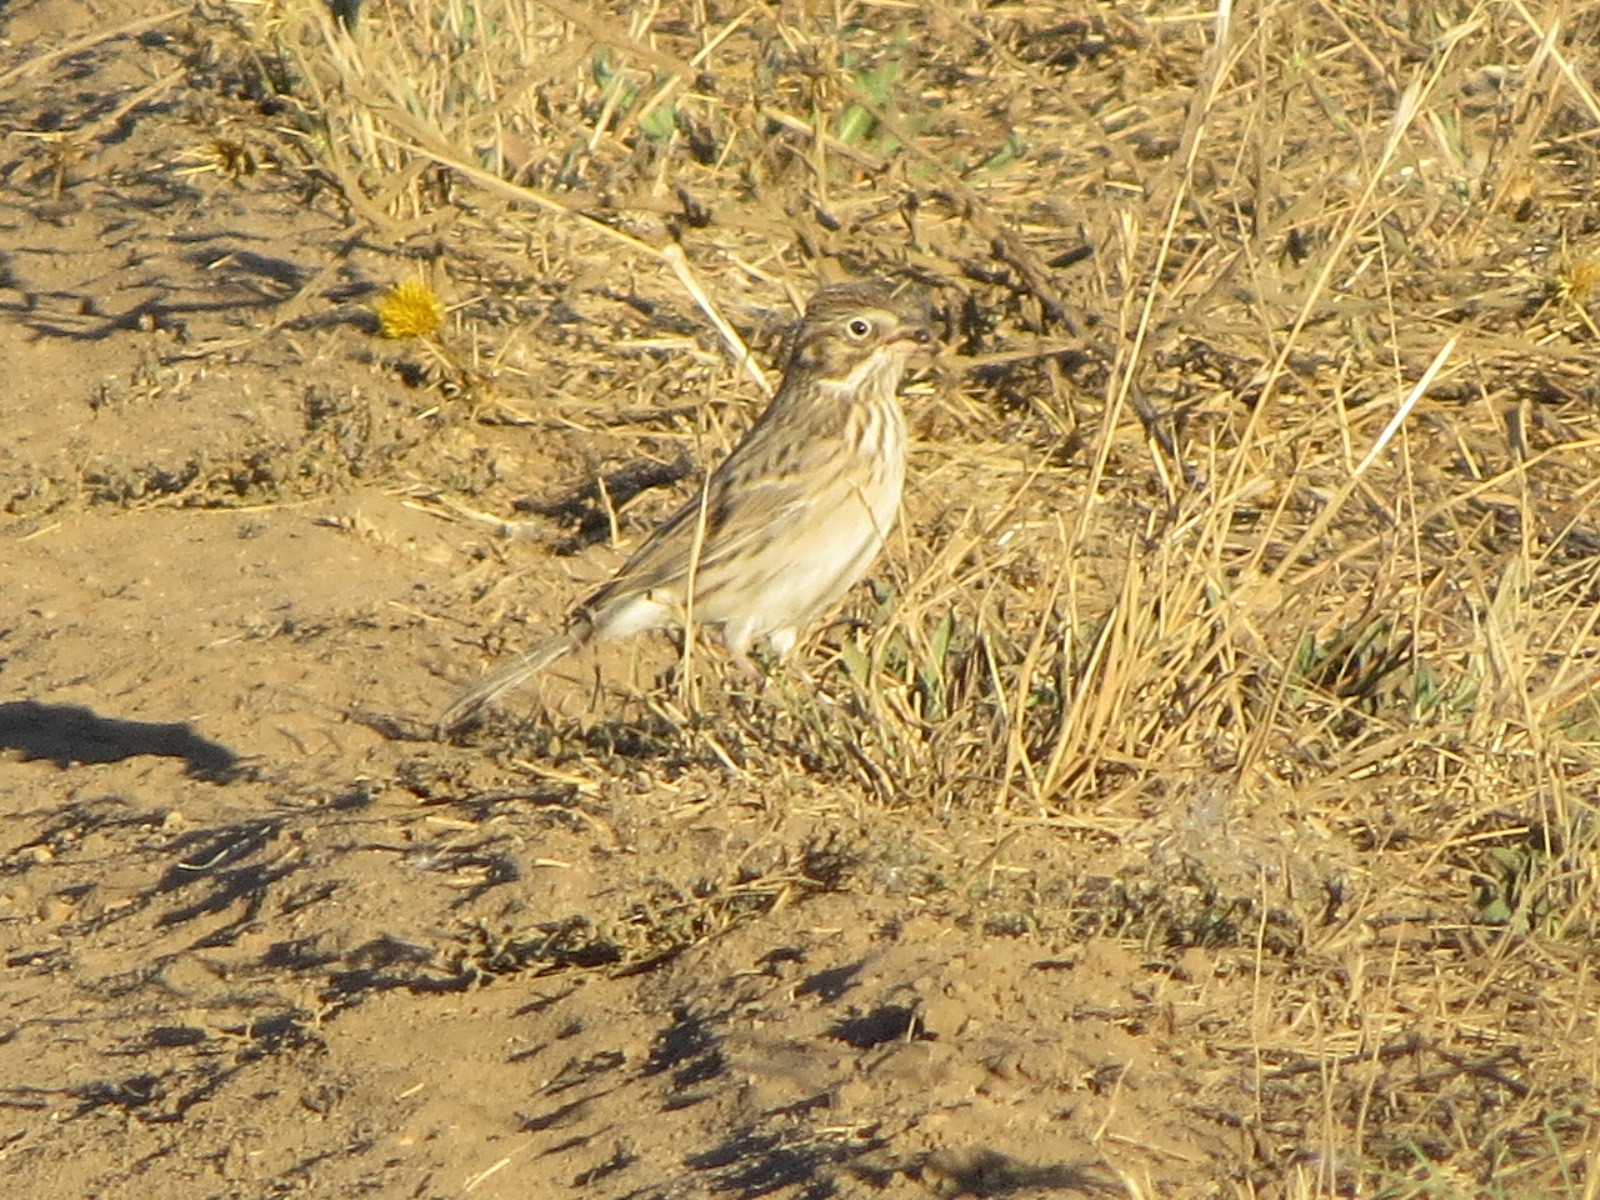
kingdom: Animalia
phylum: Chordata
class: Aves
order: Passeriformes
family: Passerellidae
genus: Pooecetes
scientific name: Pooecetes gramineus
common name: Vesper sparrow
